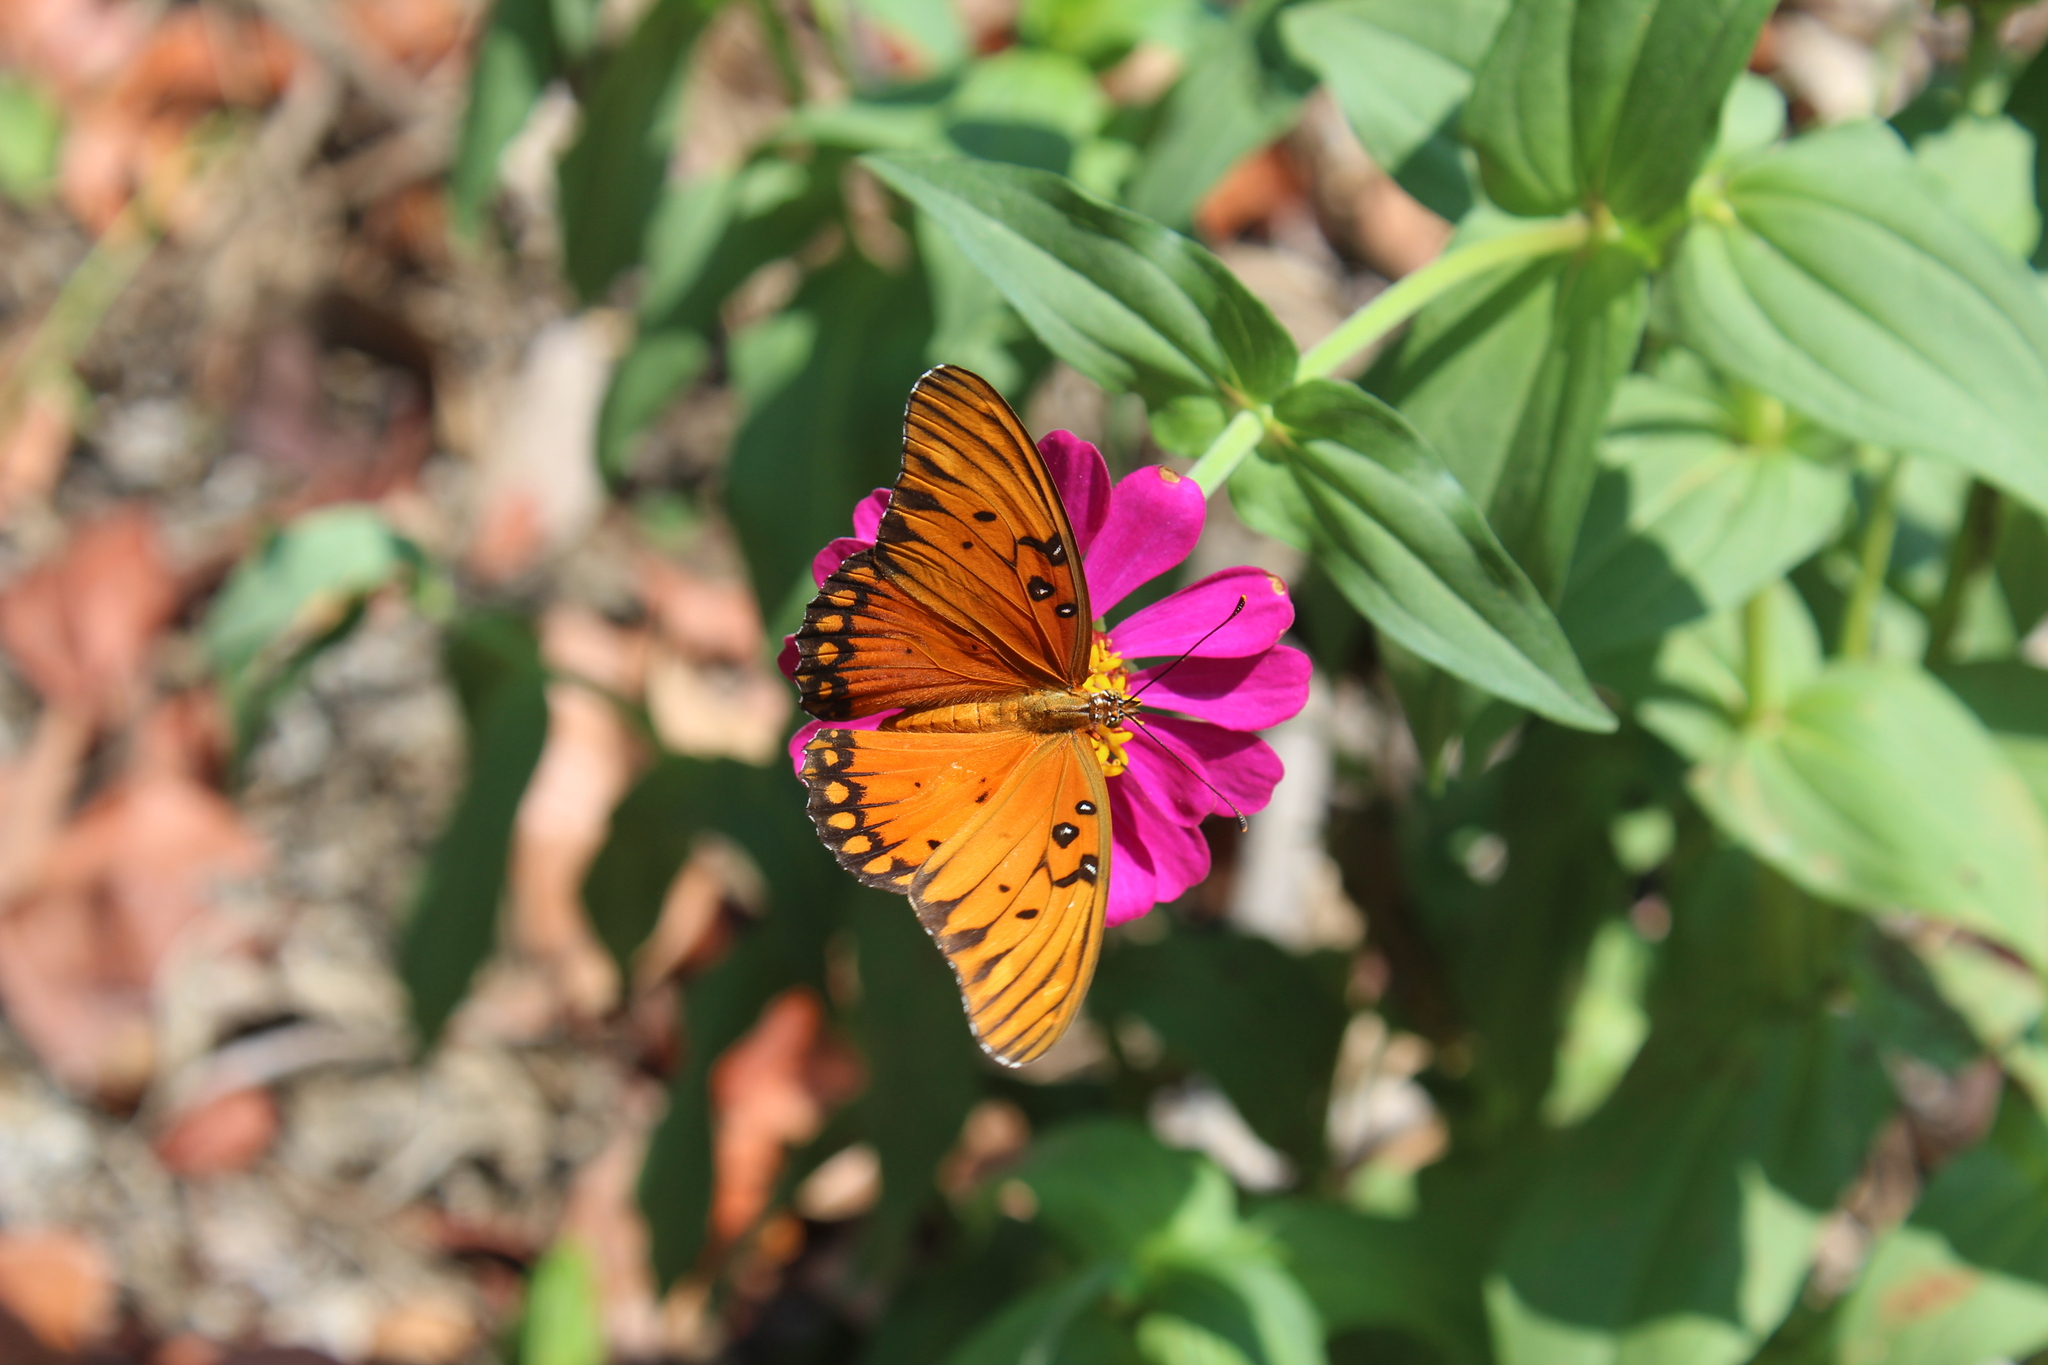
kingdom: Animalia
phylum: Arthropoda
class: Insecta
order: Lepidoptera
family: Nymphalidae
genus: Dione
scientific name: Dione vanillae
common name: Gulf fritillary
